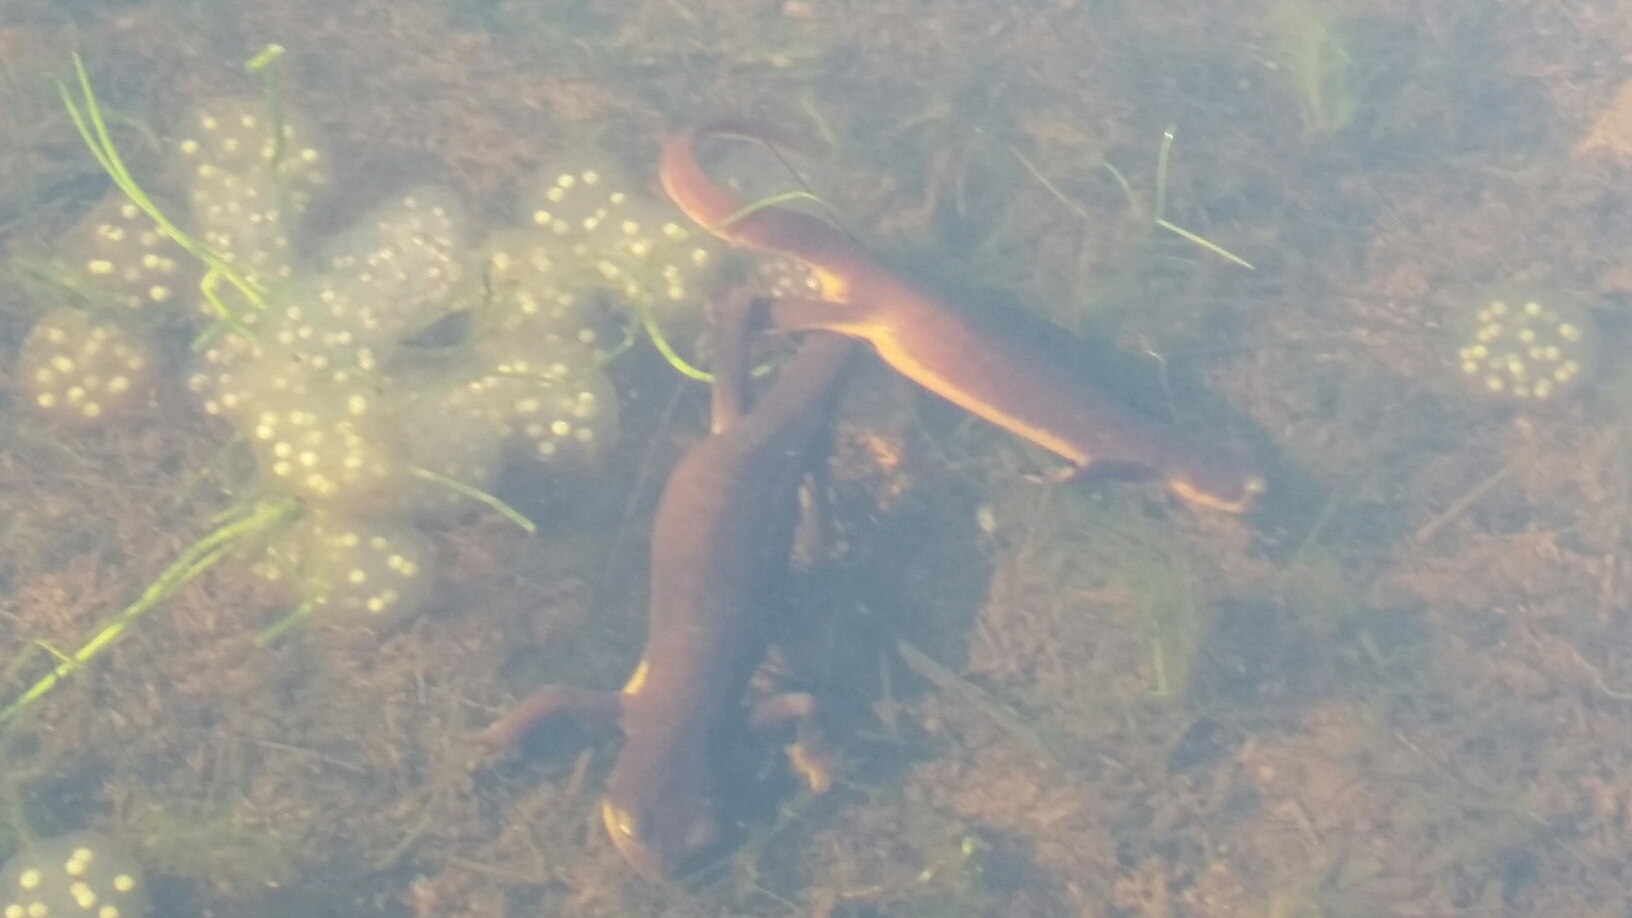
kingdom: Animalia
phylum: Chordata
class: Amphibia
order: Caudata
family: Salamandridae
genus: Taricha
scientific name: Taricha torosa
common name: California newt
